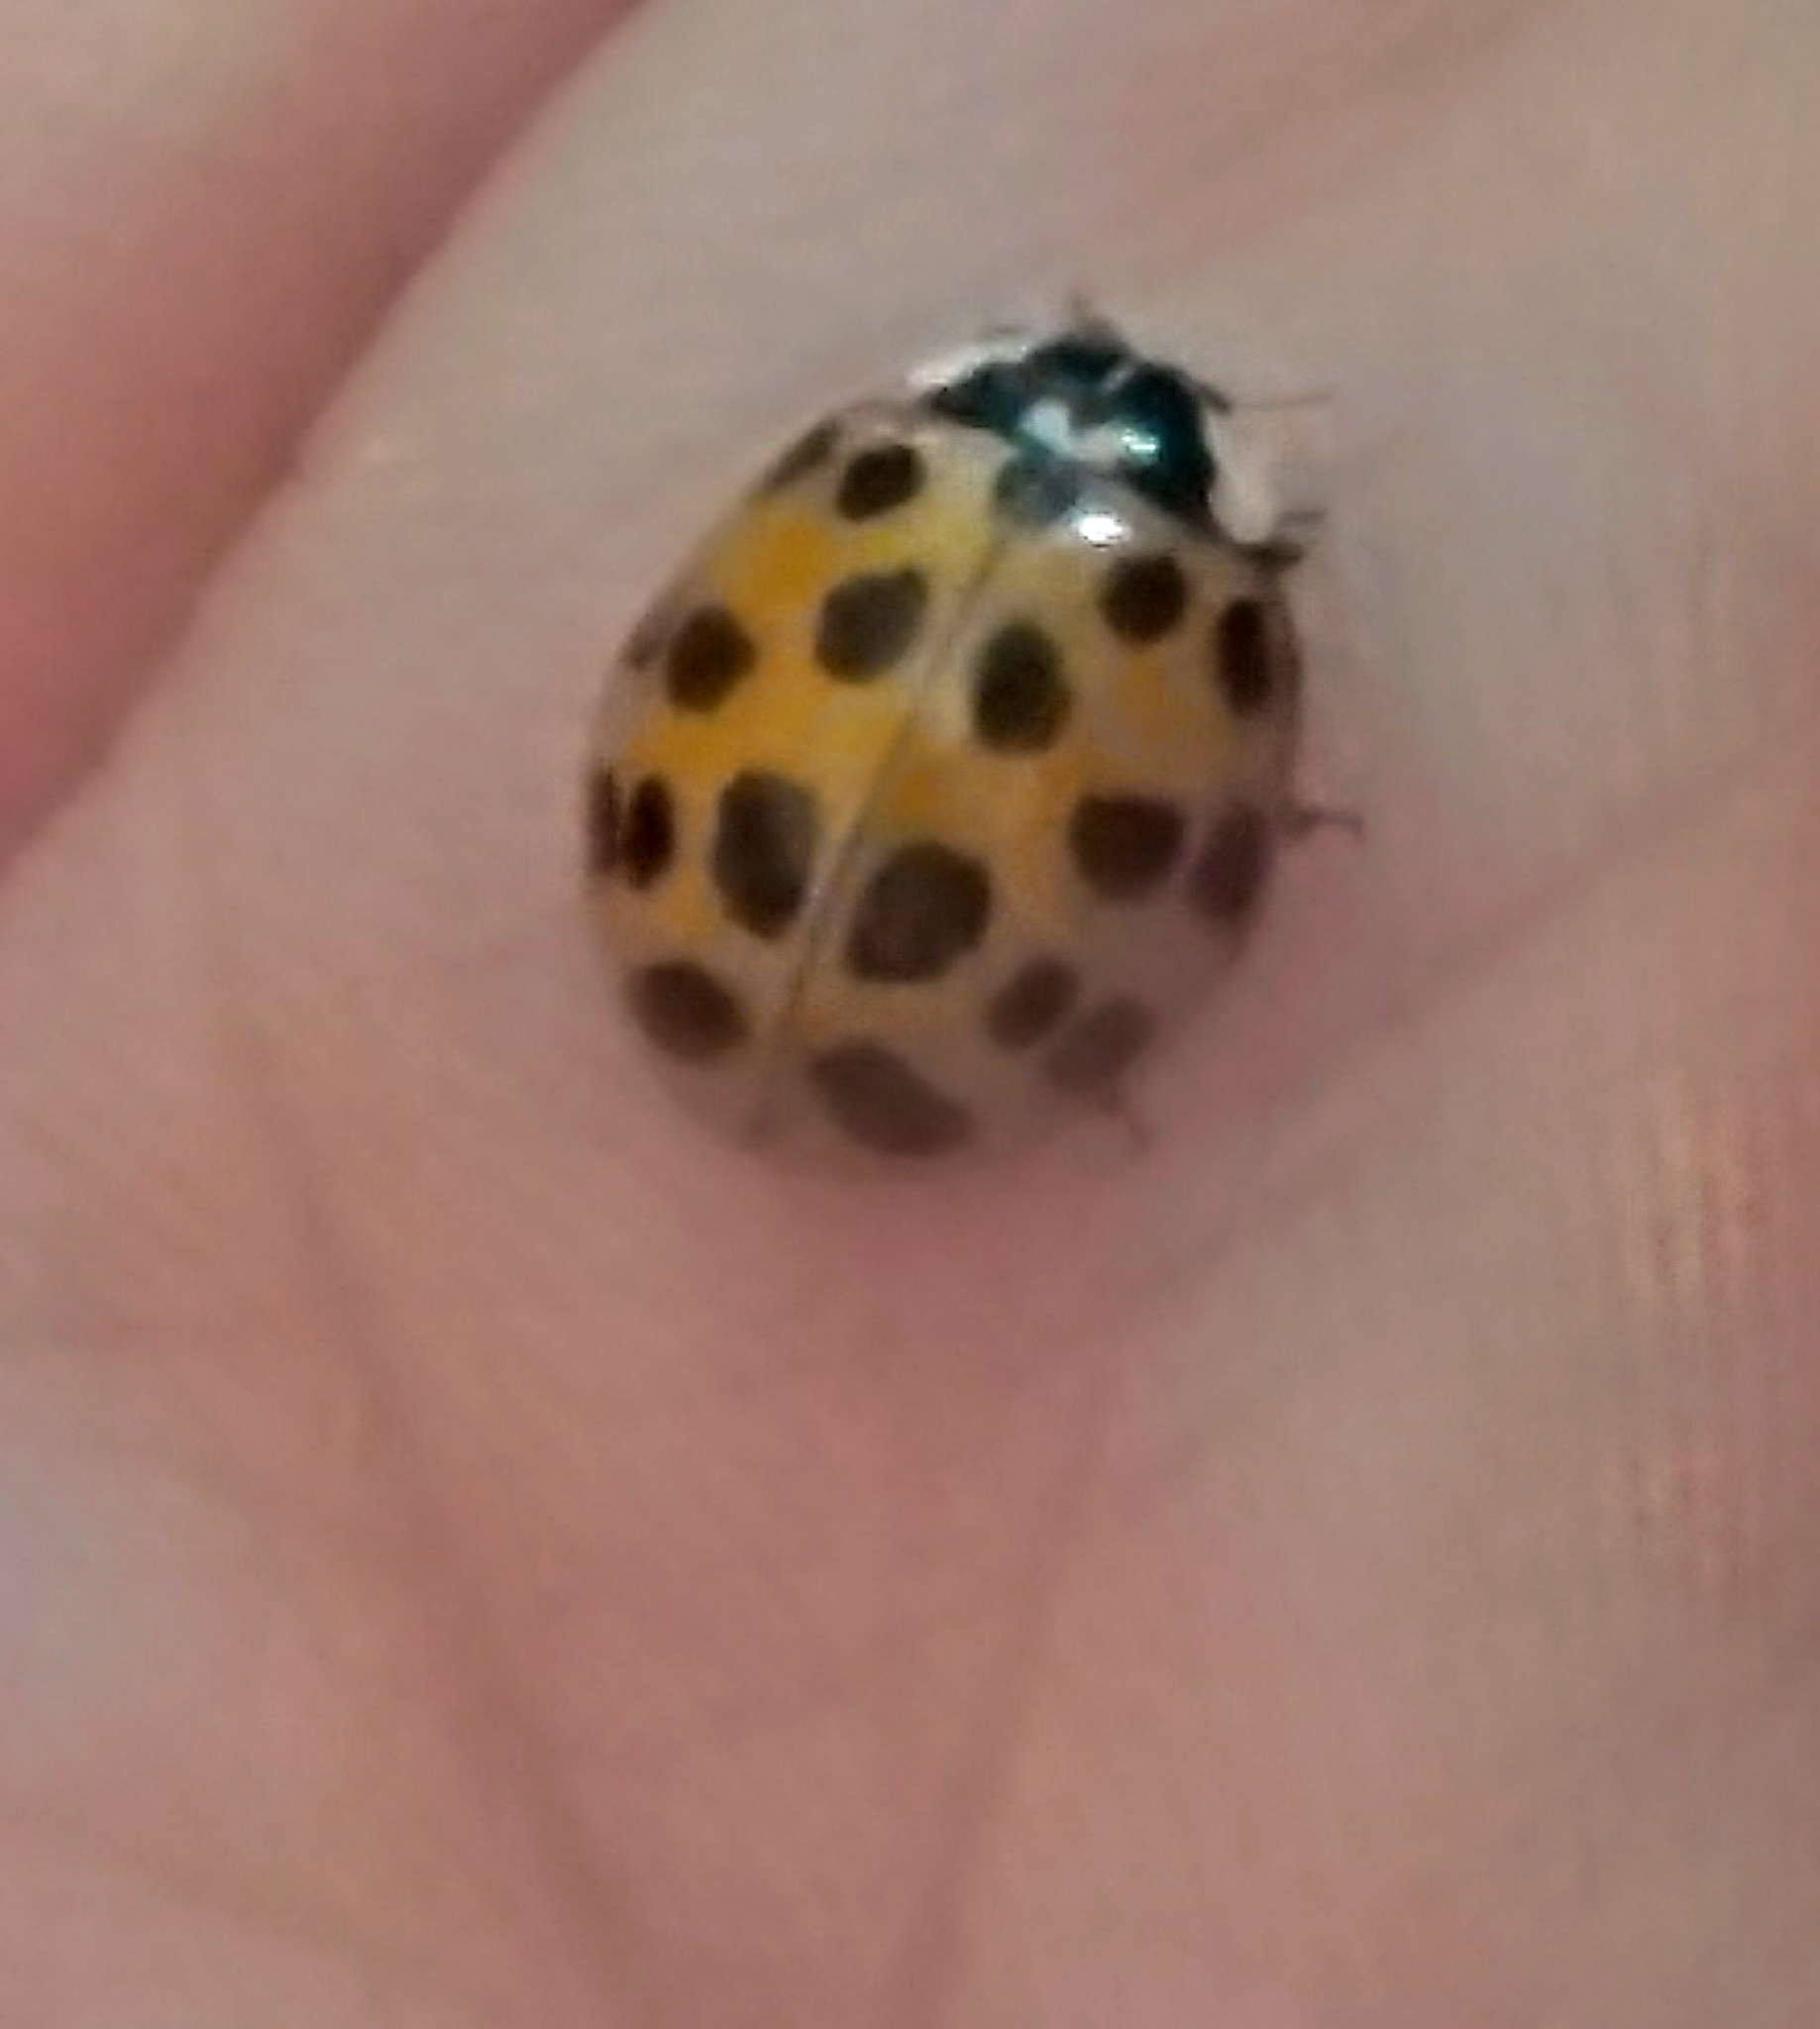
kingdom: Animalia
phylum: Arthropoda
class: Insecta
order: Coleoptera
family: Coccinellidae
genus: Harmonia
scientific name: Harmonia axyridis
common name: Harlequin ladybird
